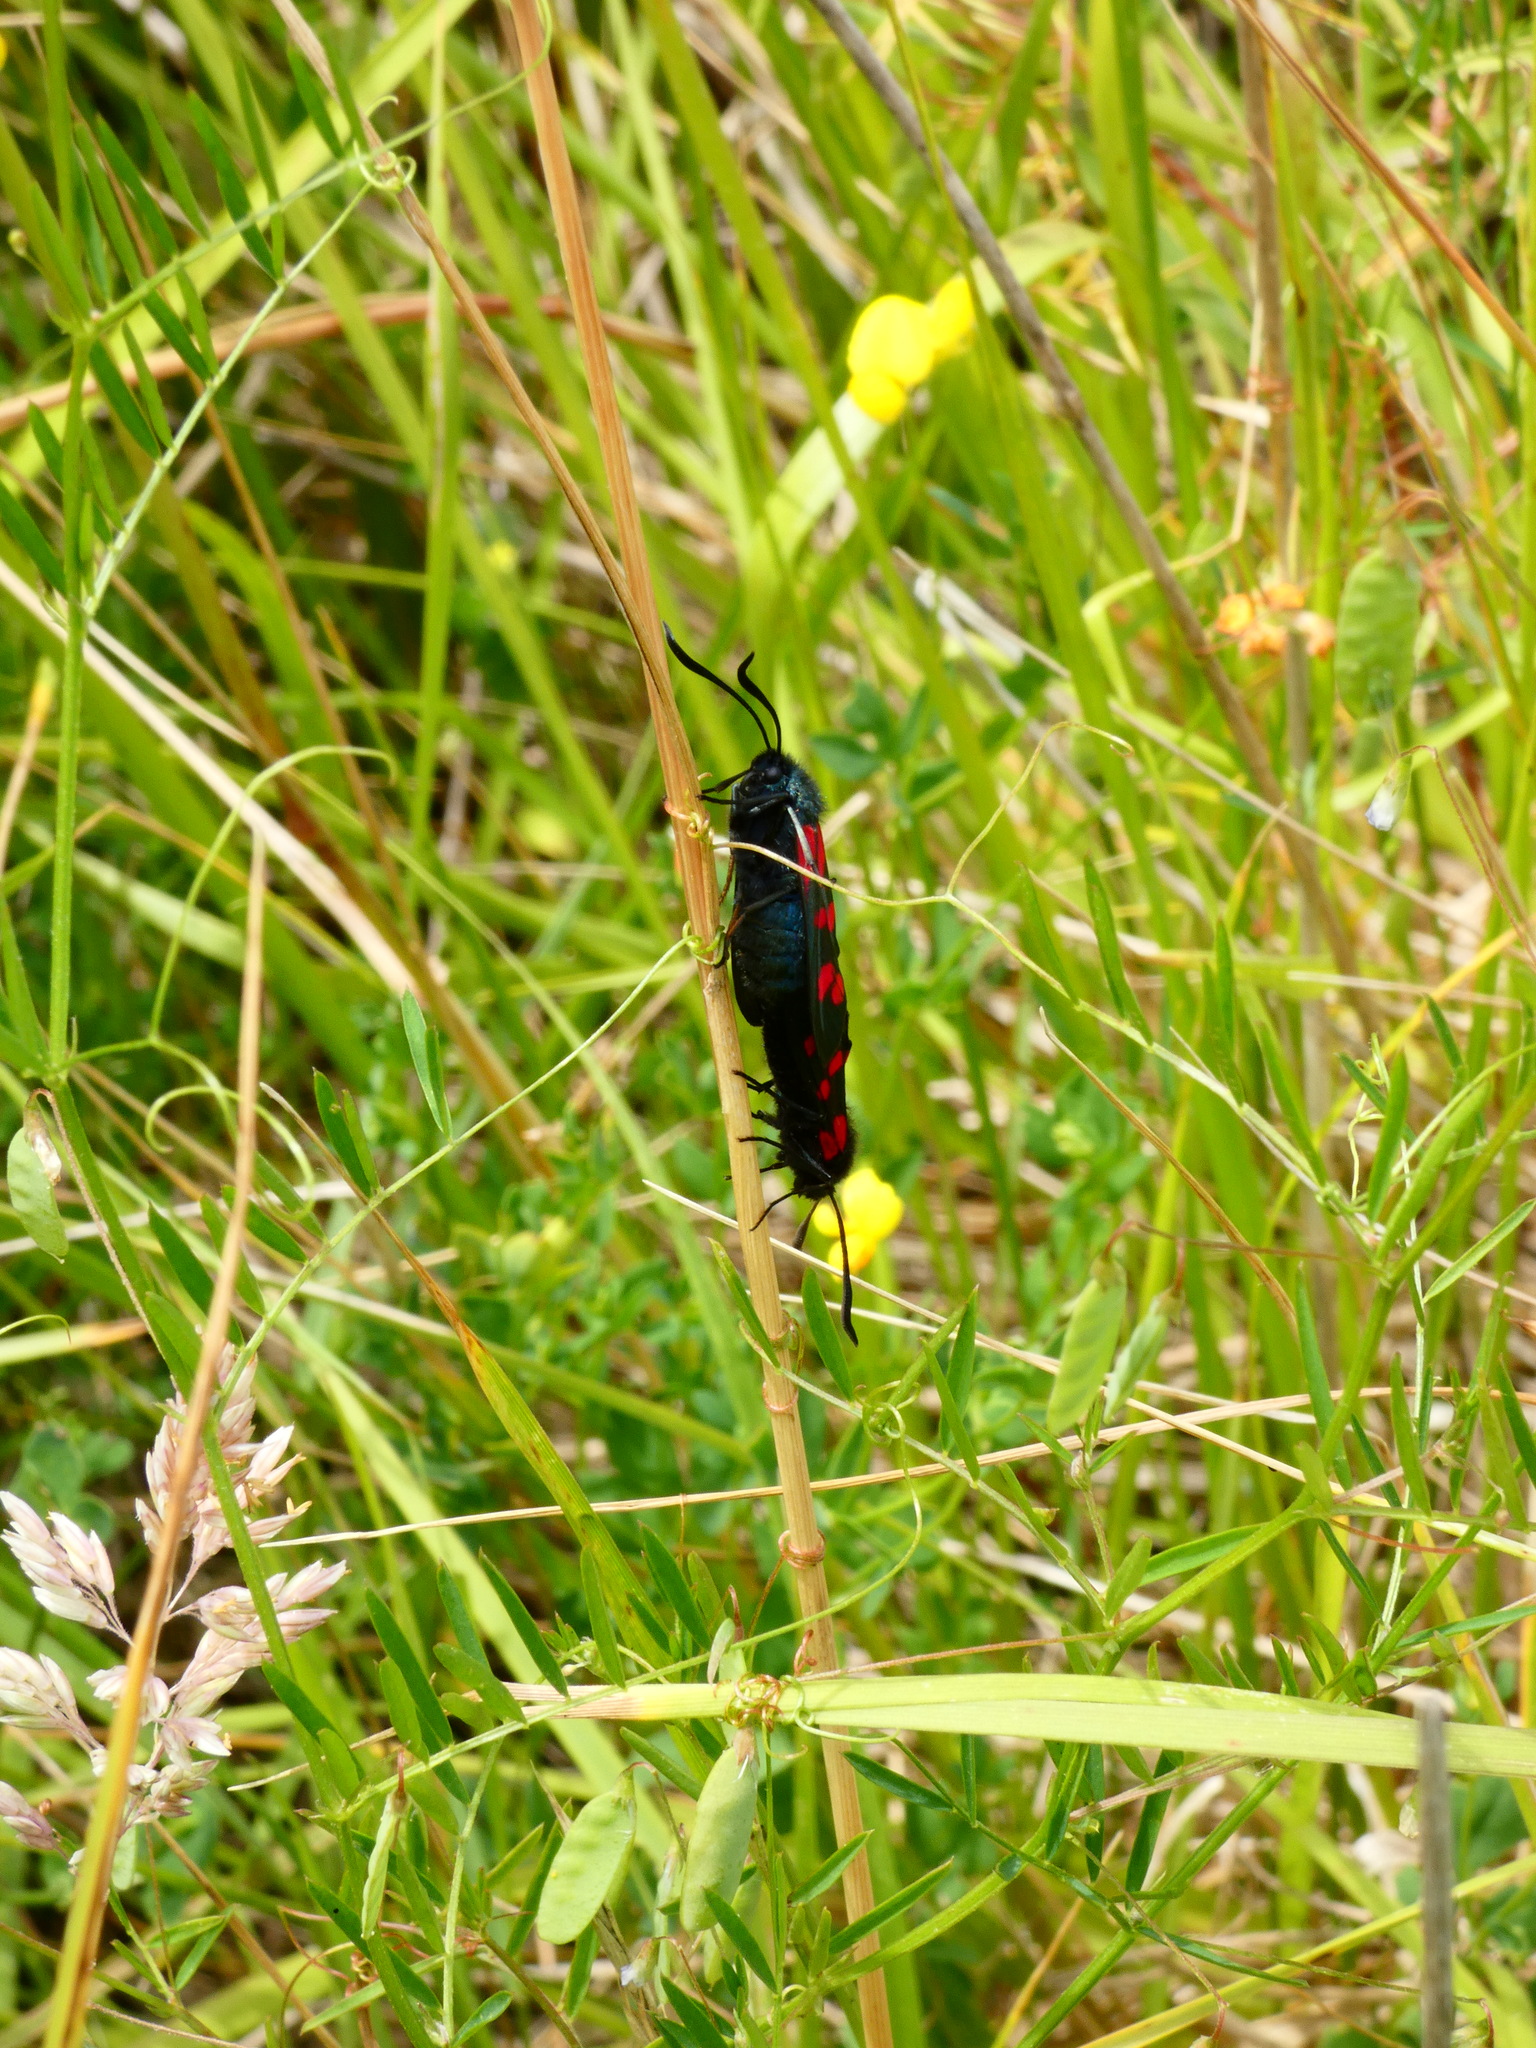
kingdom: Animalia
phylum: Arthropoda
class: Insecta
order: Lepidoptera
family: Zygaenidae
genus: Zygaena
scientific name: Zygaena trifolii
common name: Five-spot burnet
